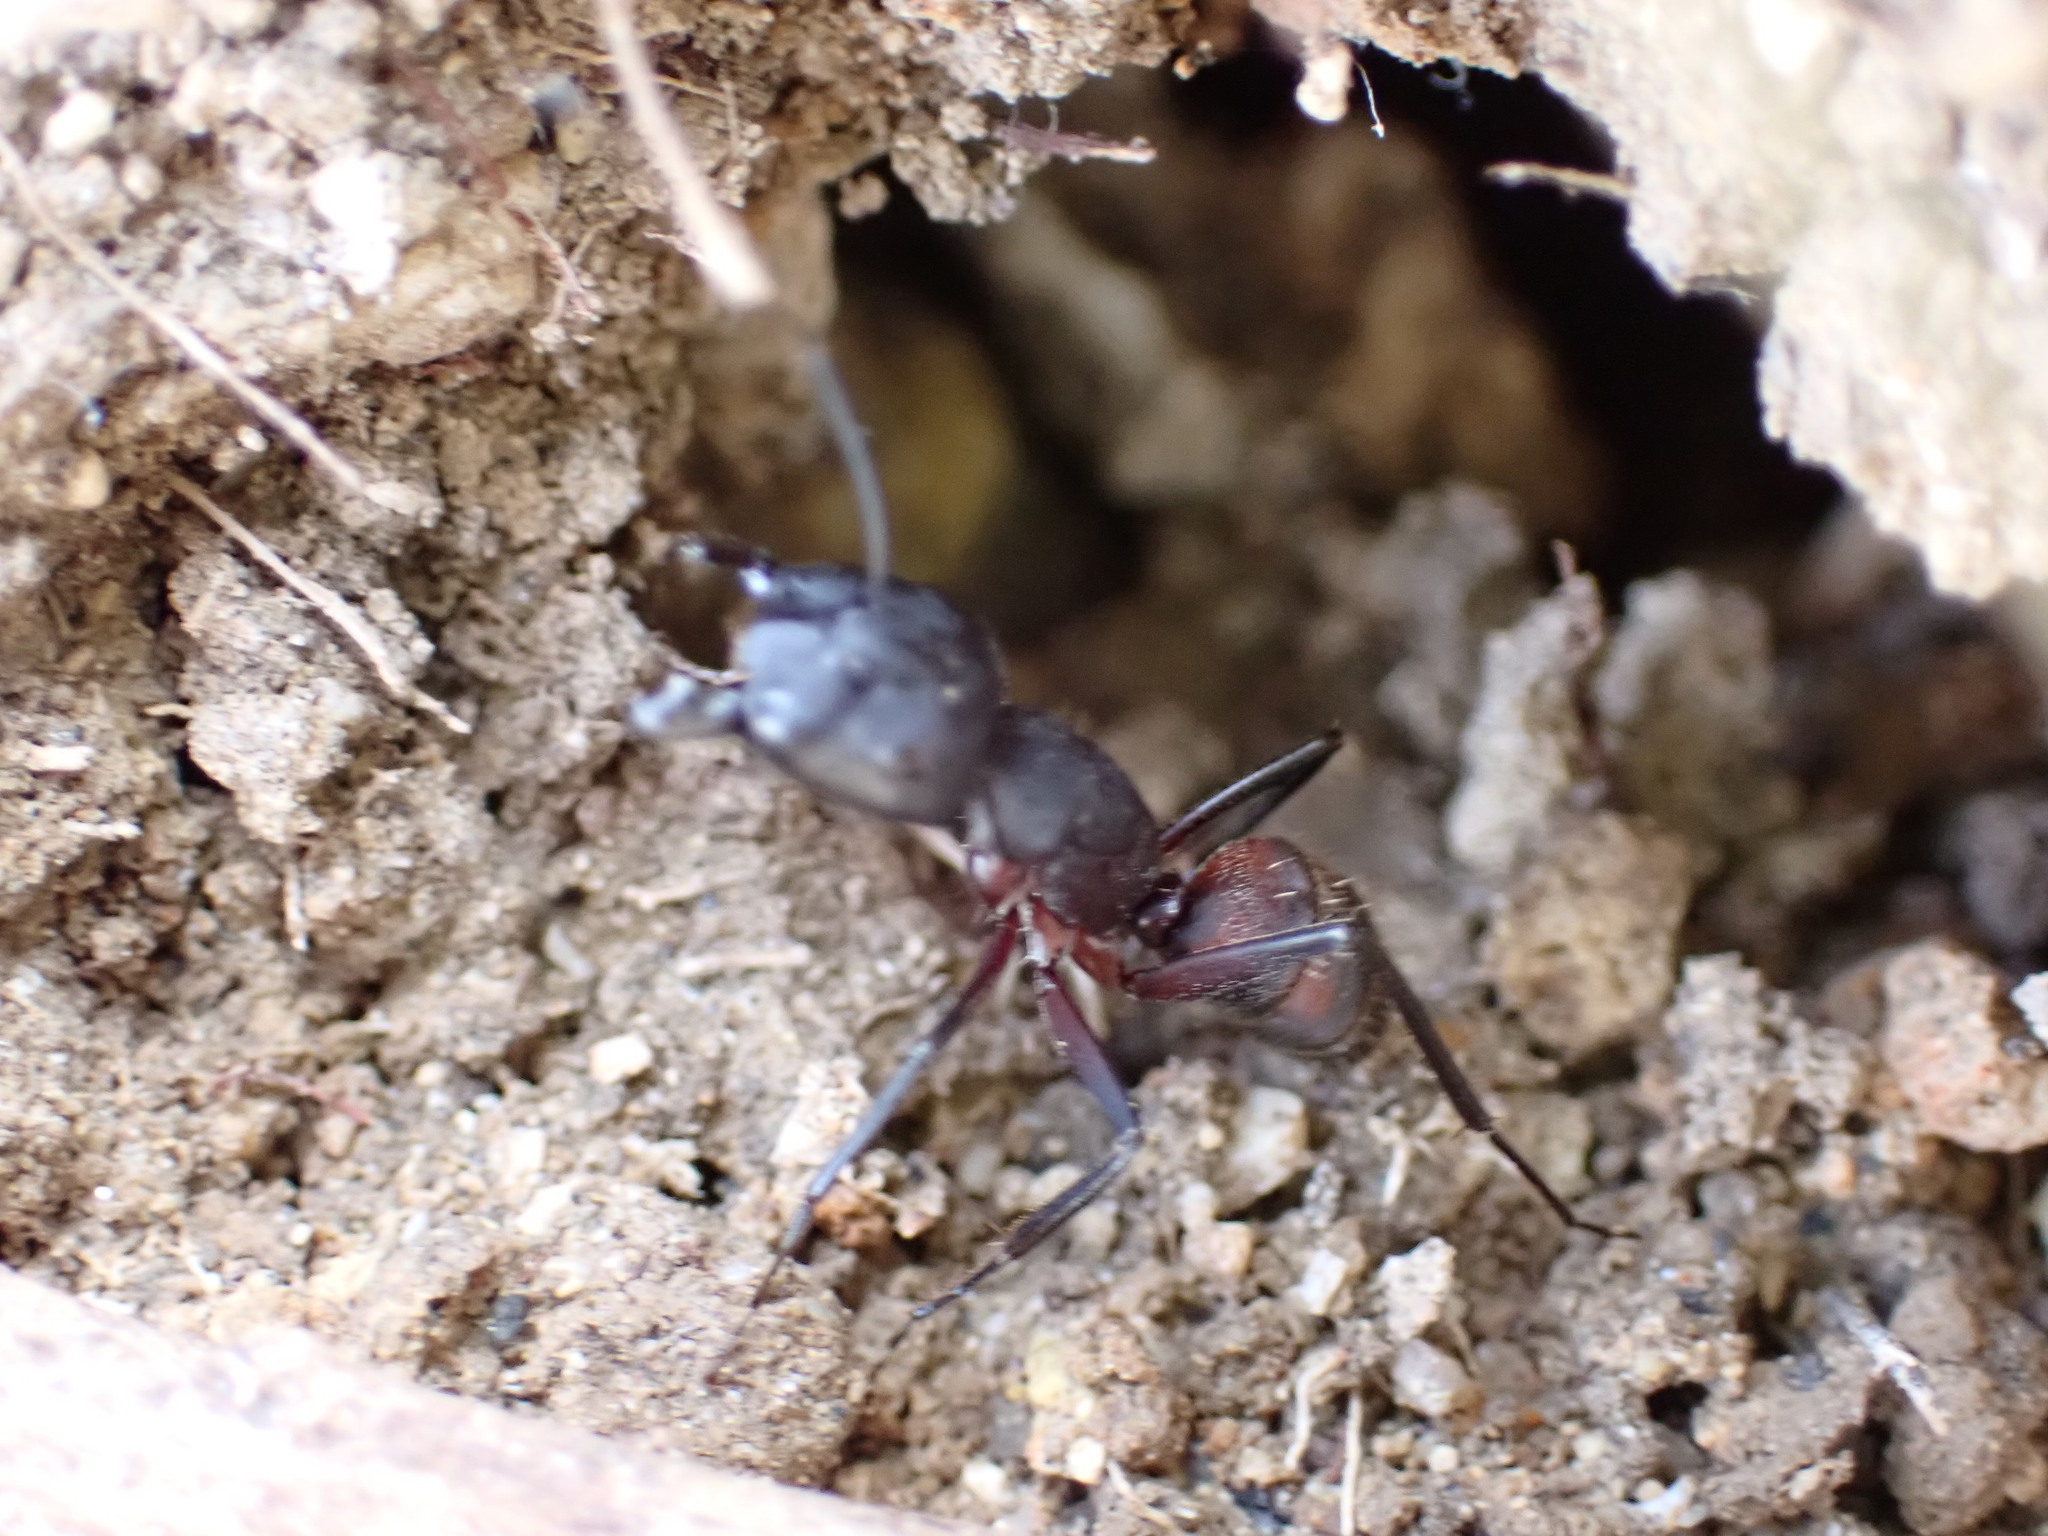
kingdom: Animalia
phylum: Arthropoda
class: Insecta
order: Hymenoptera
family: Formicidae
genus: Camponotus
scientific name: Camponotus cruentatus
